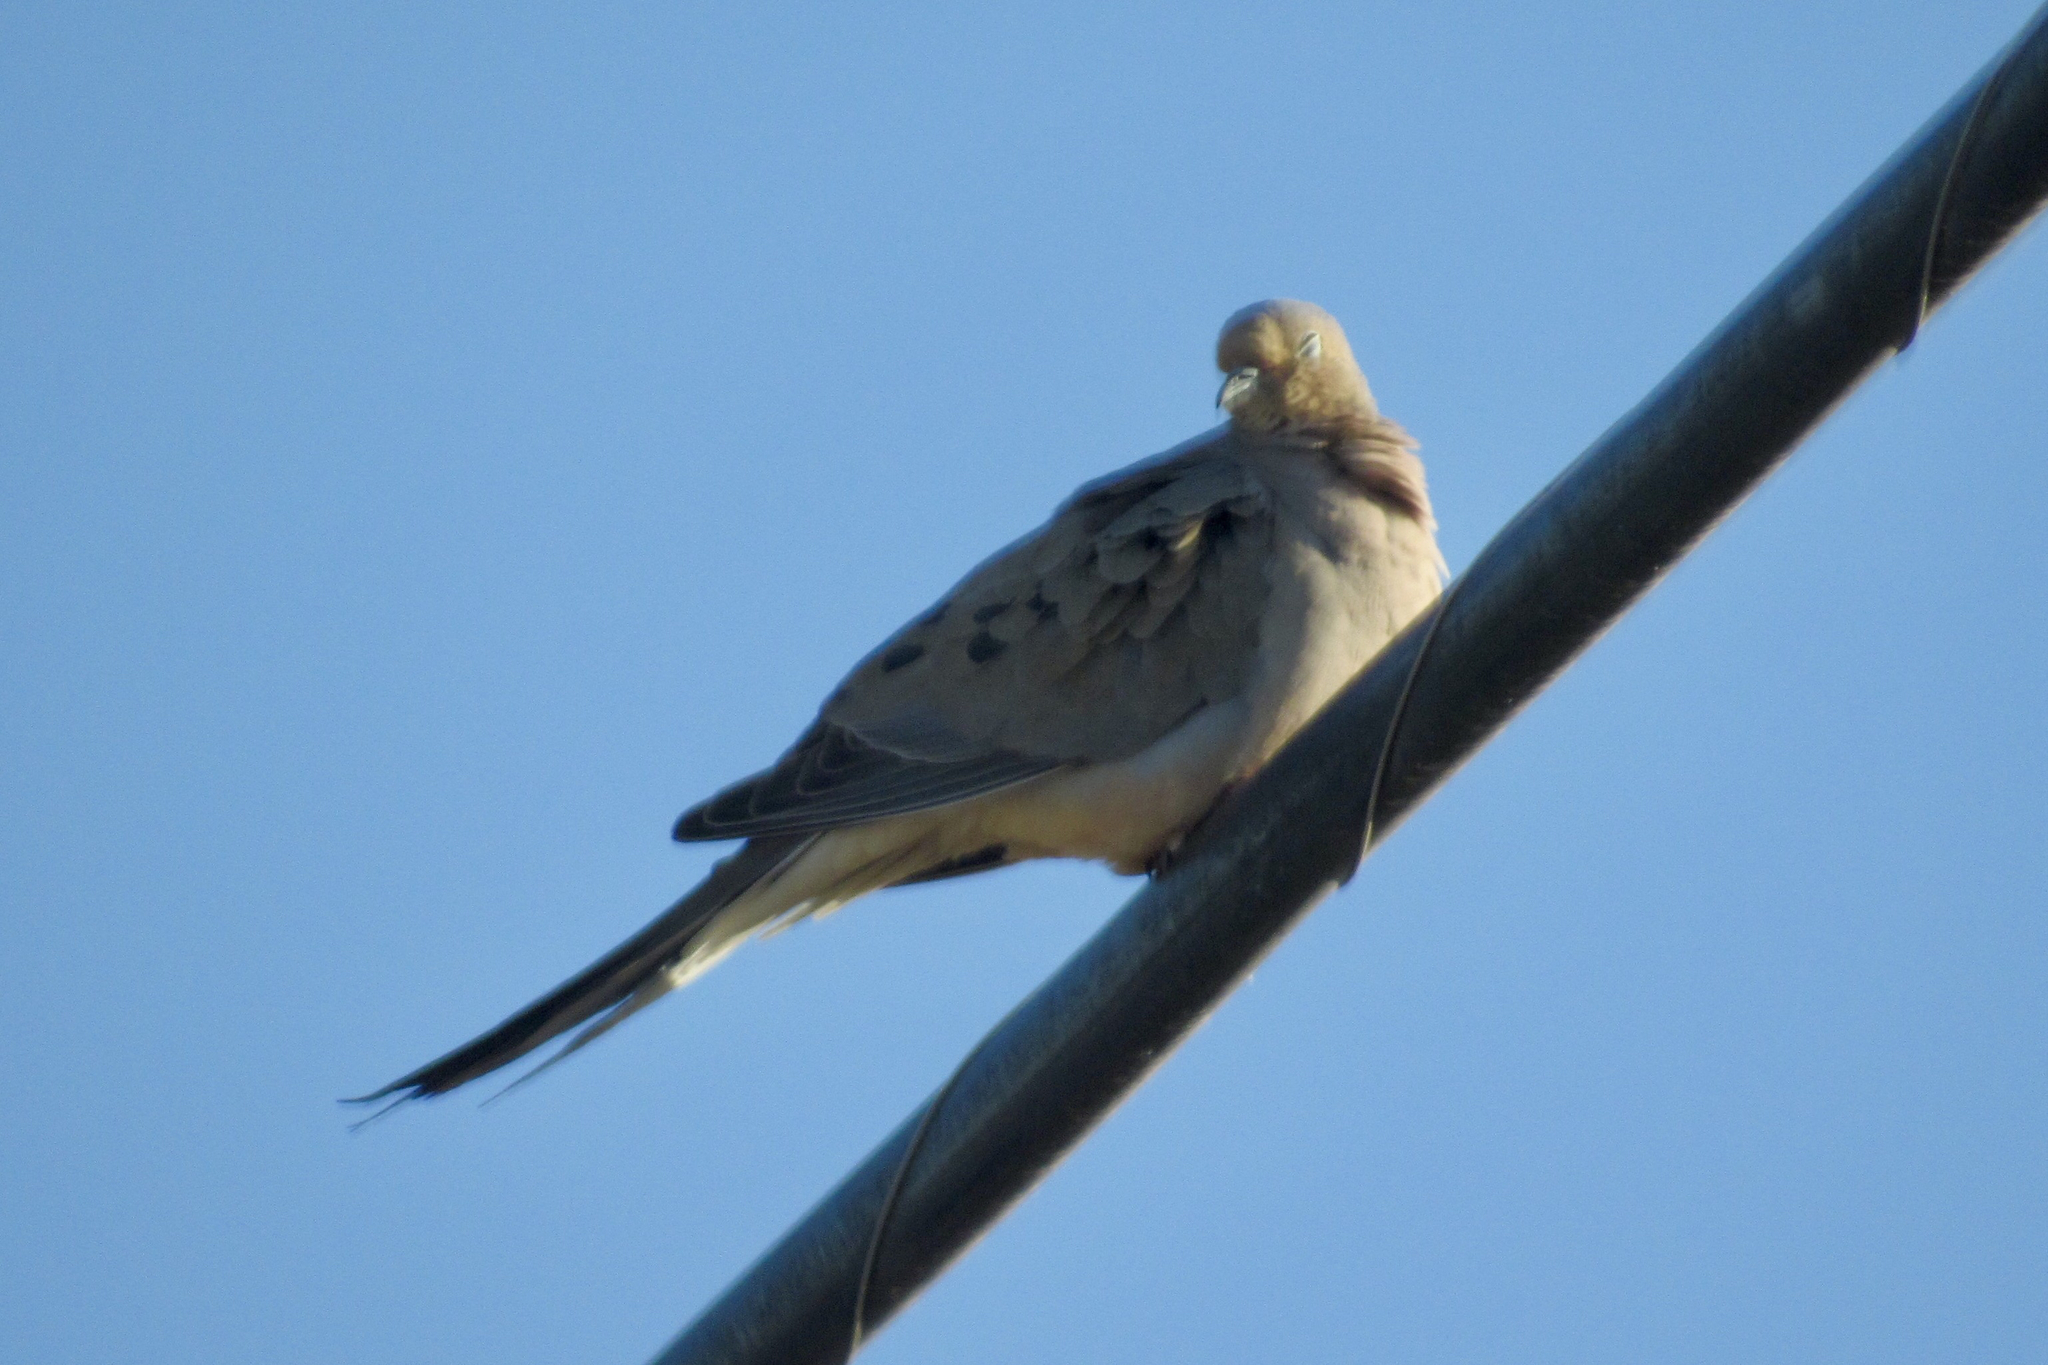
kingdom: Animalia
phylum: Chordata
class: Aves
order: Columbiformes
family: Columbidae
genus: Zenaida
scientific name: Zenaida macroura
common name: Mourning dove
